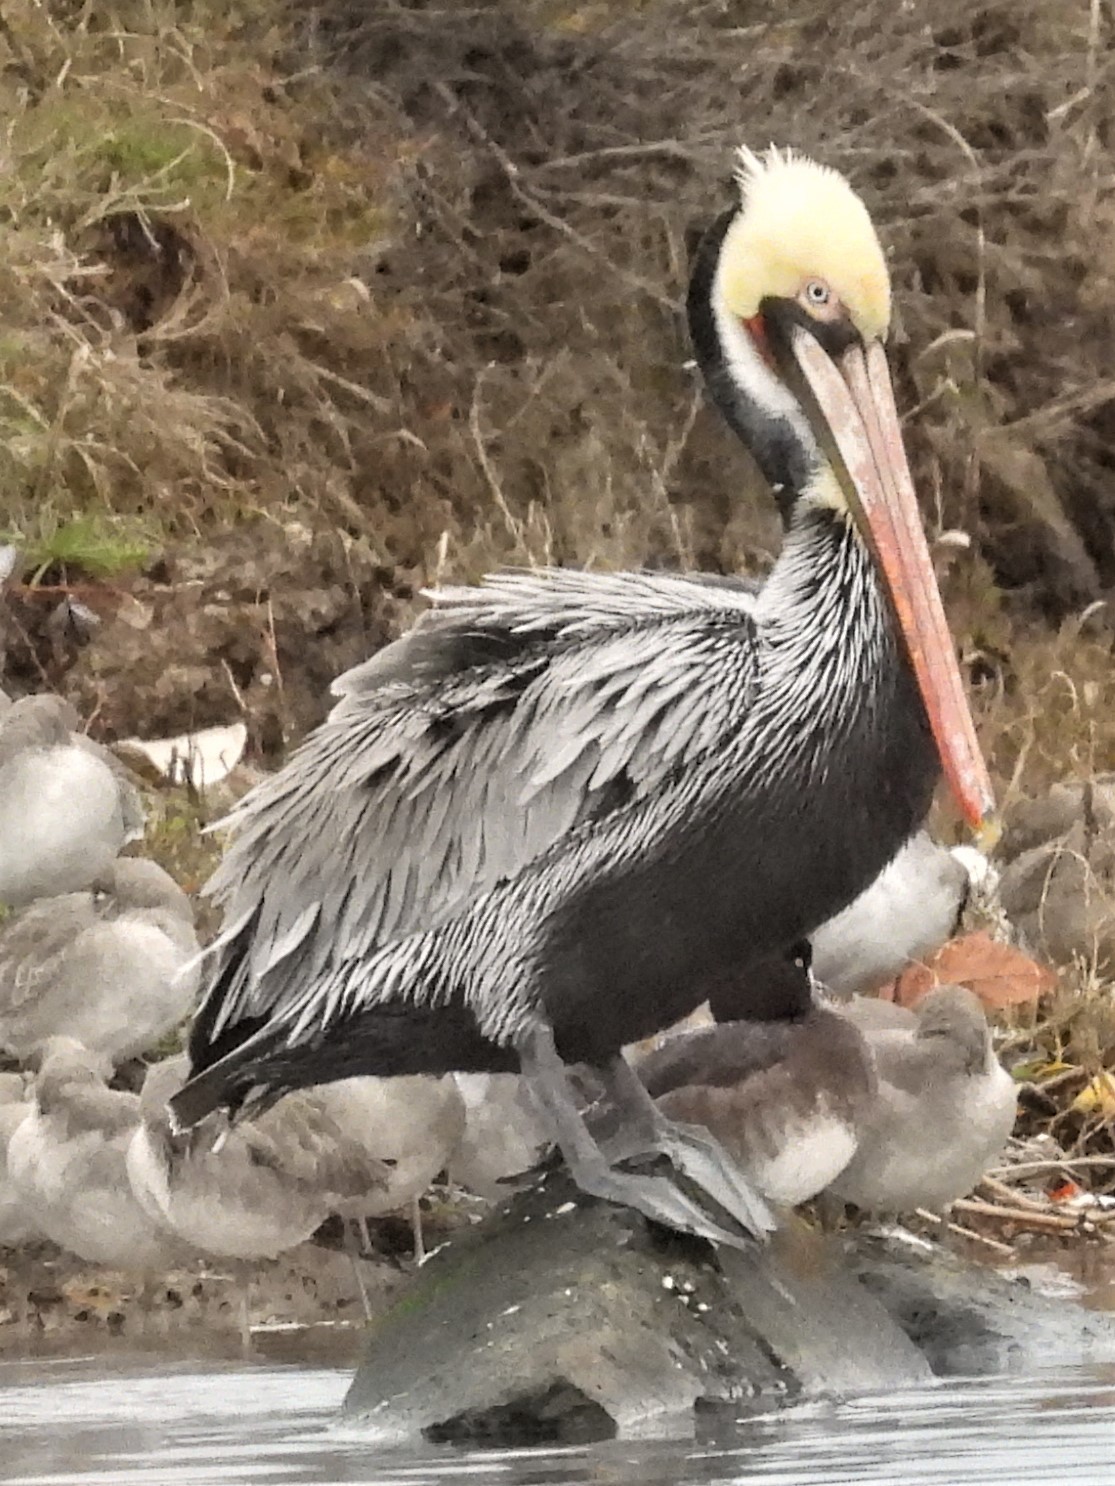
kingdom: Animalia
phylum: Chordata
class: Aves
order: Pelecaniformes
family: Pelecanidae
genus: Pelecanus
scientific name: Pelecanus occidentalis
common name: Brown pelican
